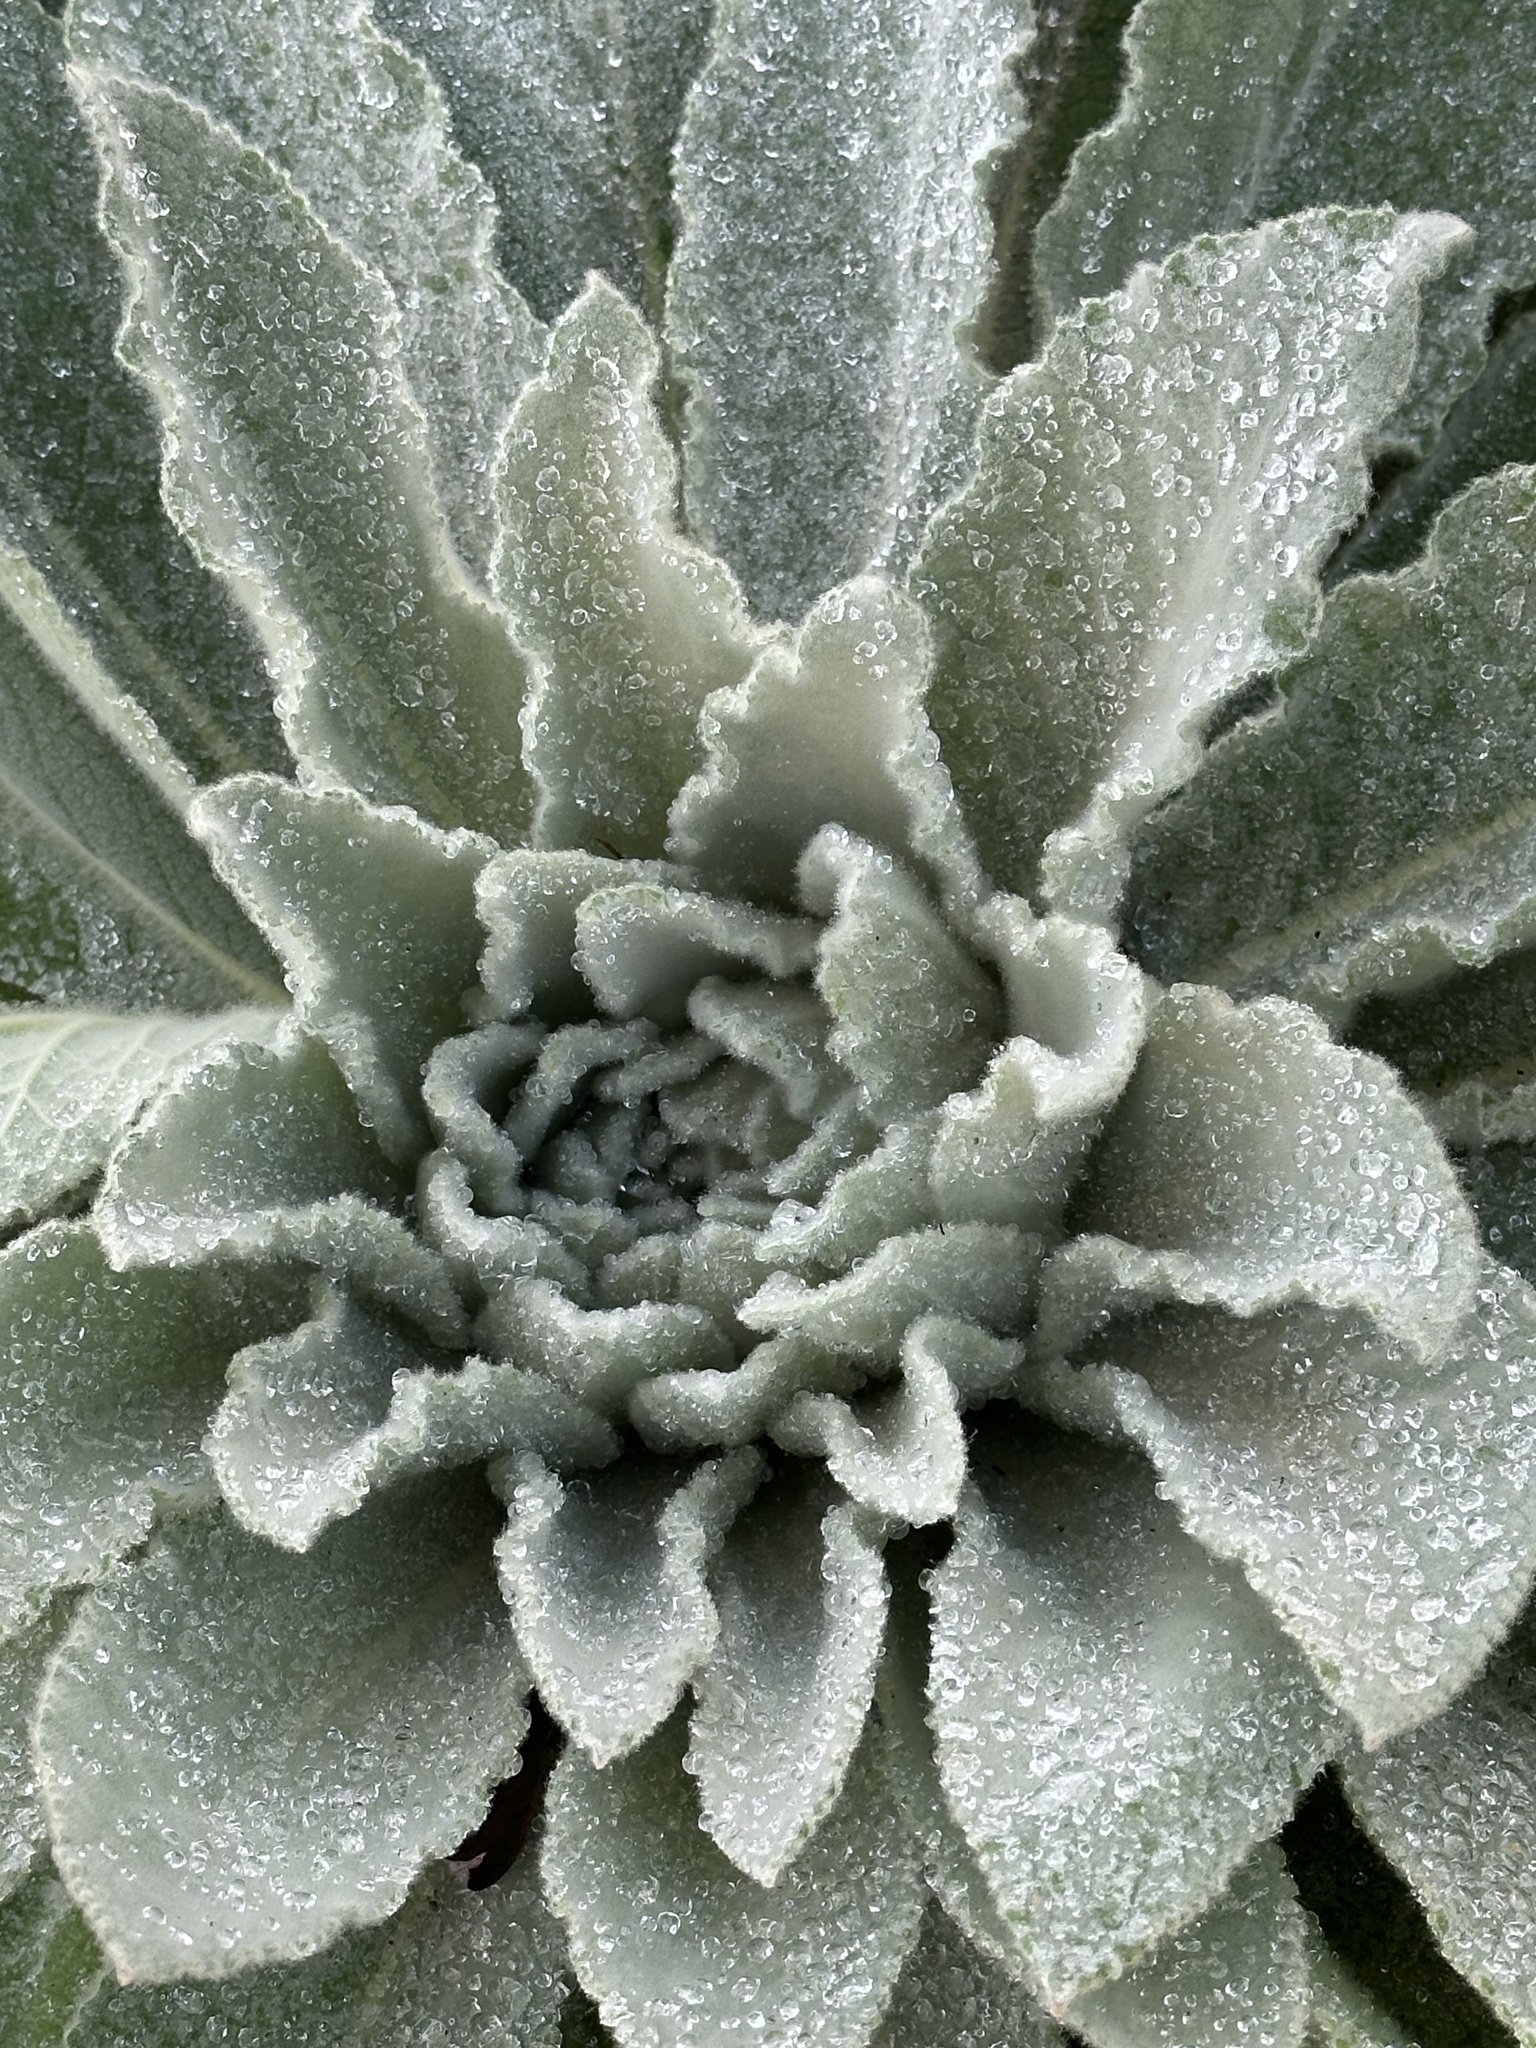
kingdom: Plantae
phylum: Tracheophyta
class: Magnoliopsida
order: Lamiales
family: Scrophulariaceae
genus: Verbascum
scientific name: Verbascum thapsus
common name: Common mullein
